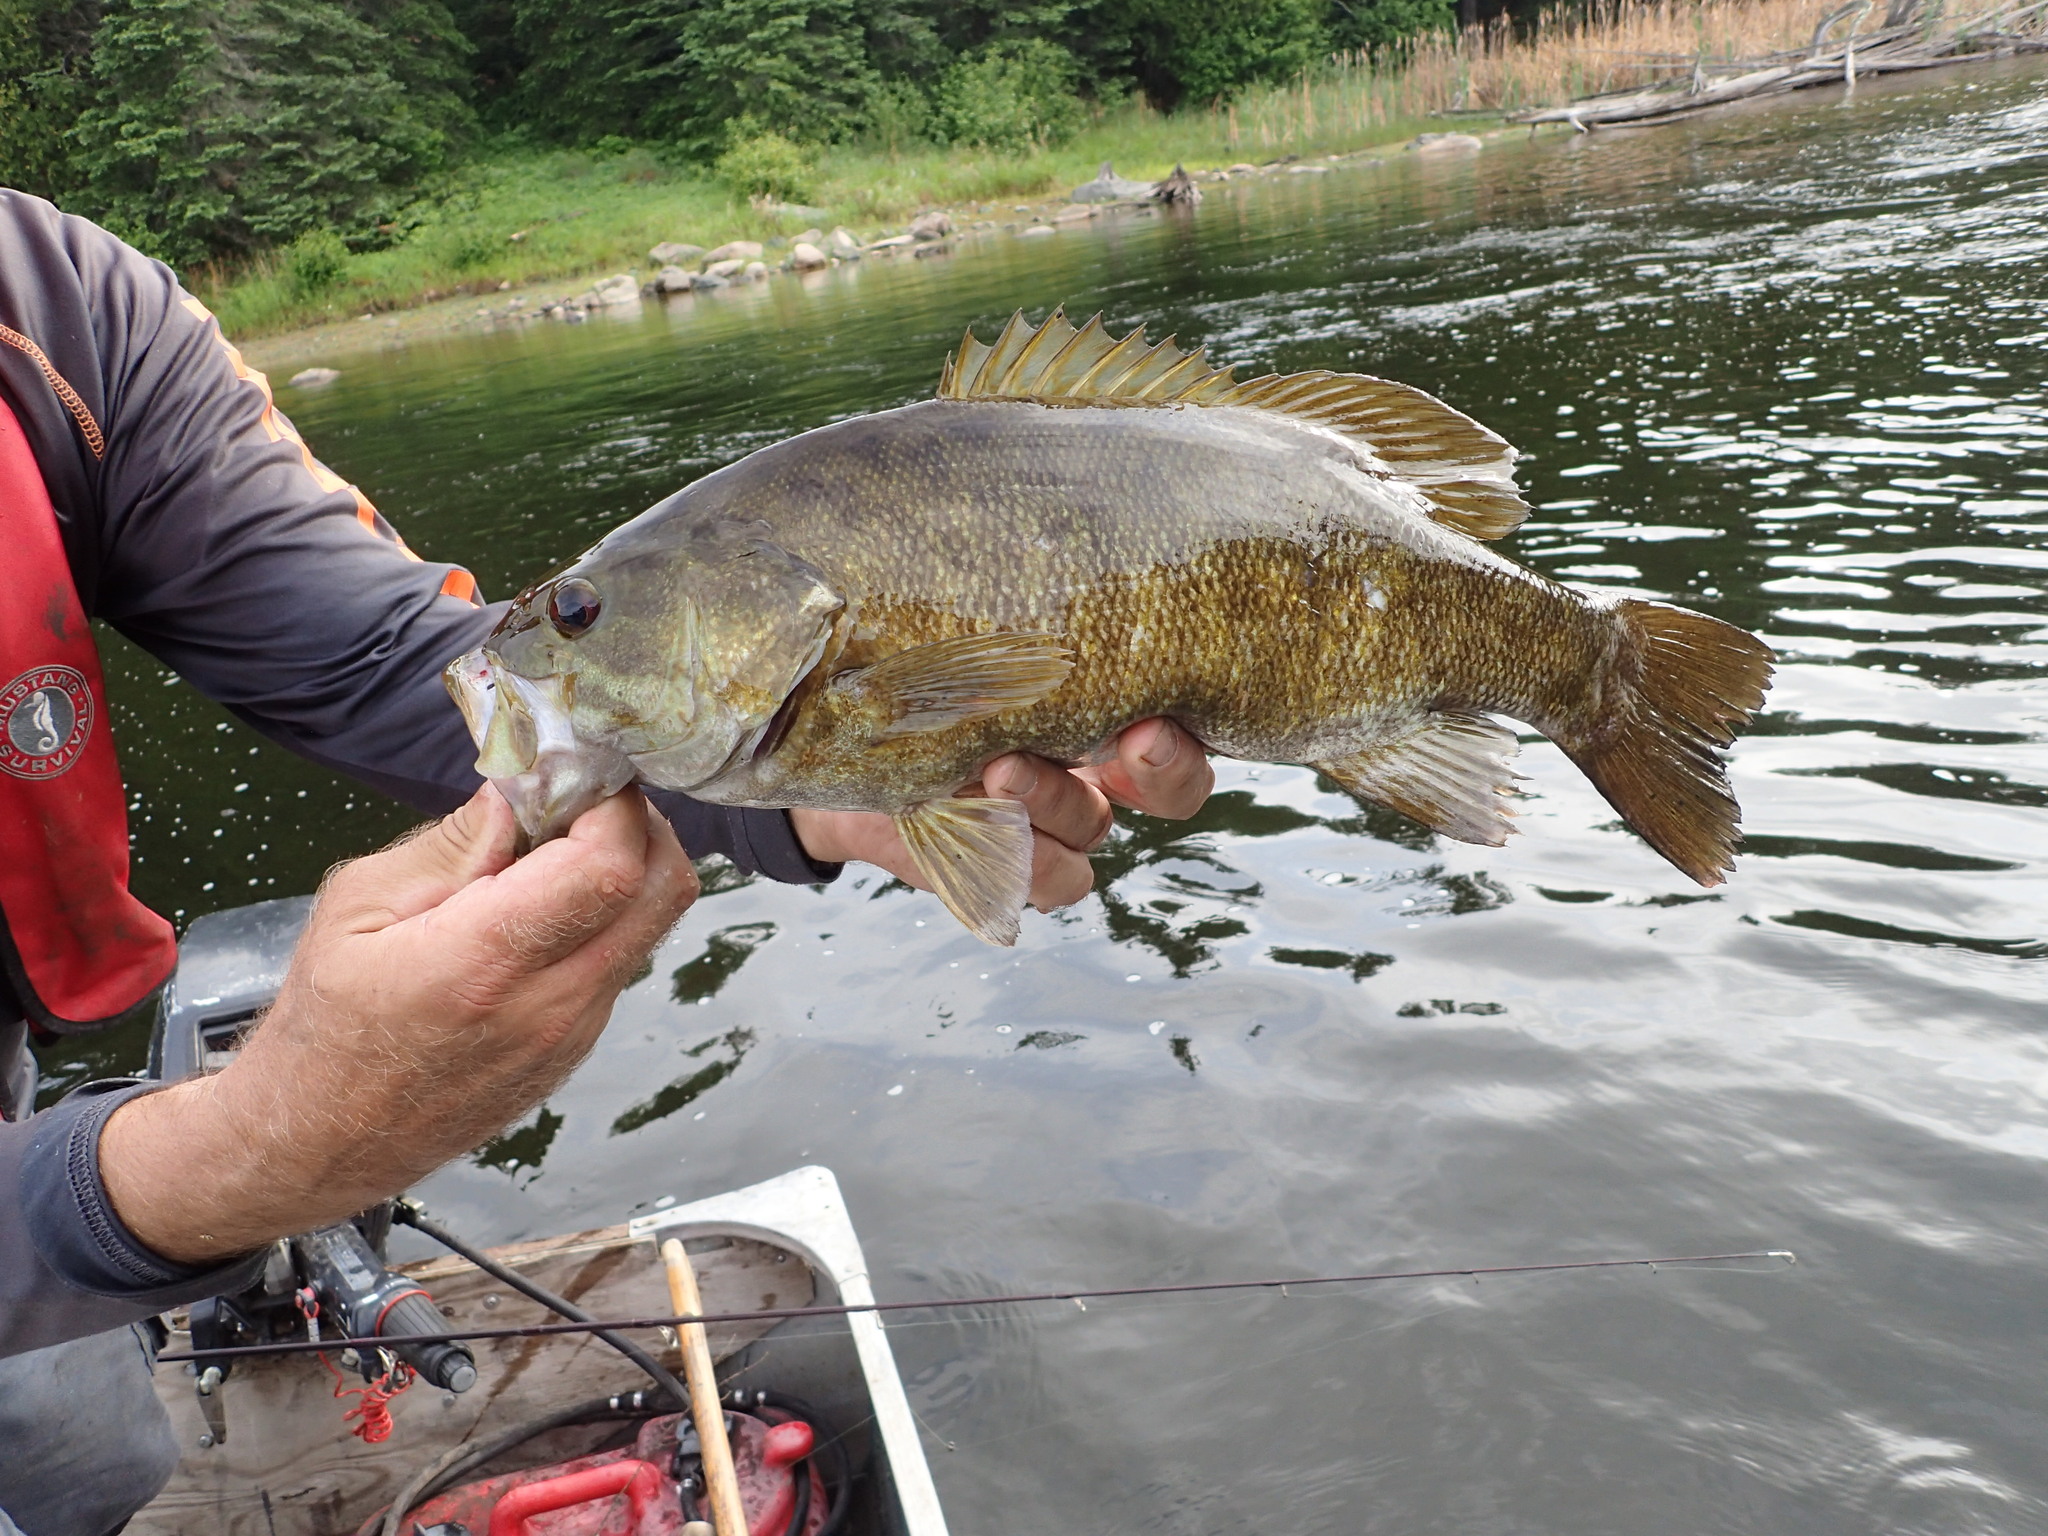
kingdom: Animalia
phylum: Chordata
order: Perciformes
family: Centrarchidae
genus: Micropterus
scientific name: Micropterus dolomieu
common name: Smallmouth bass
